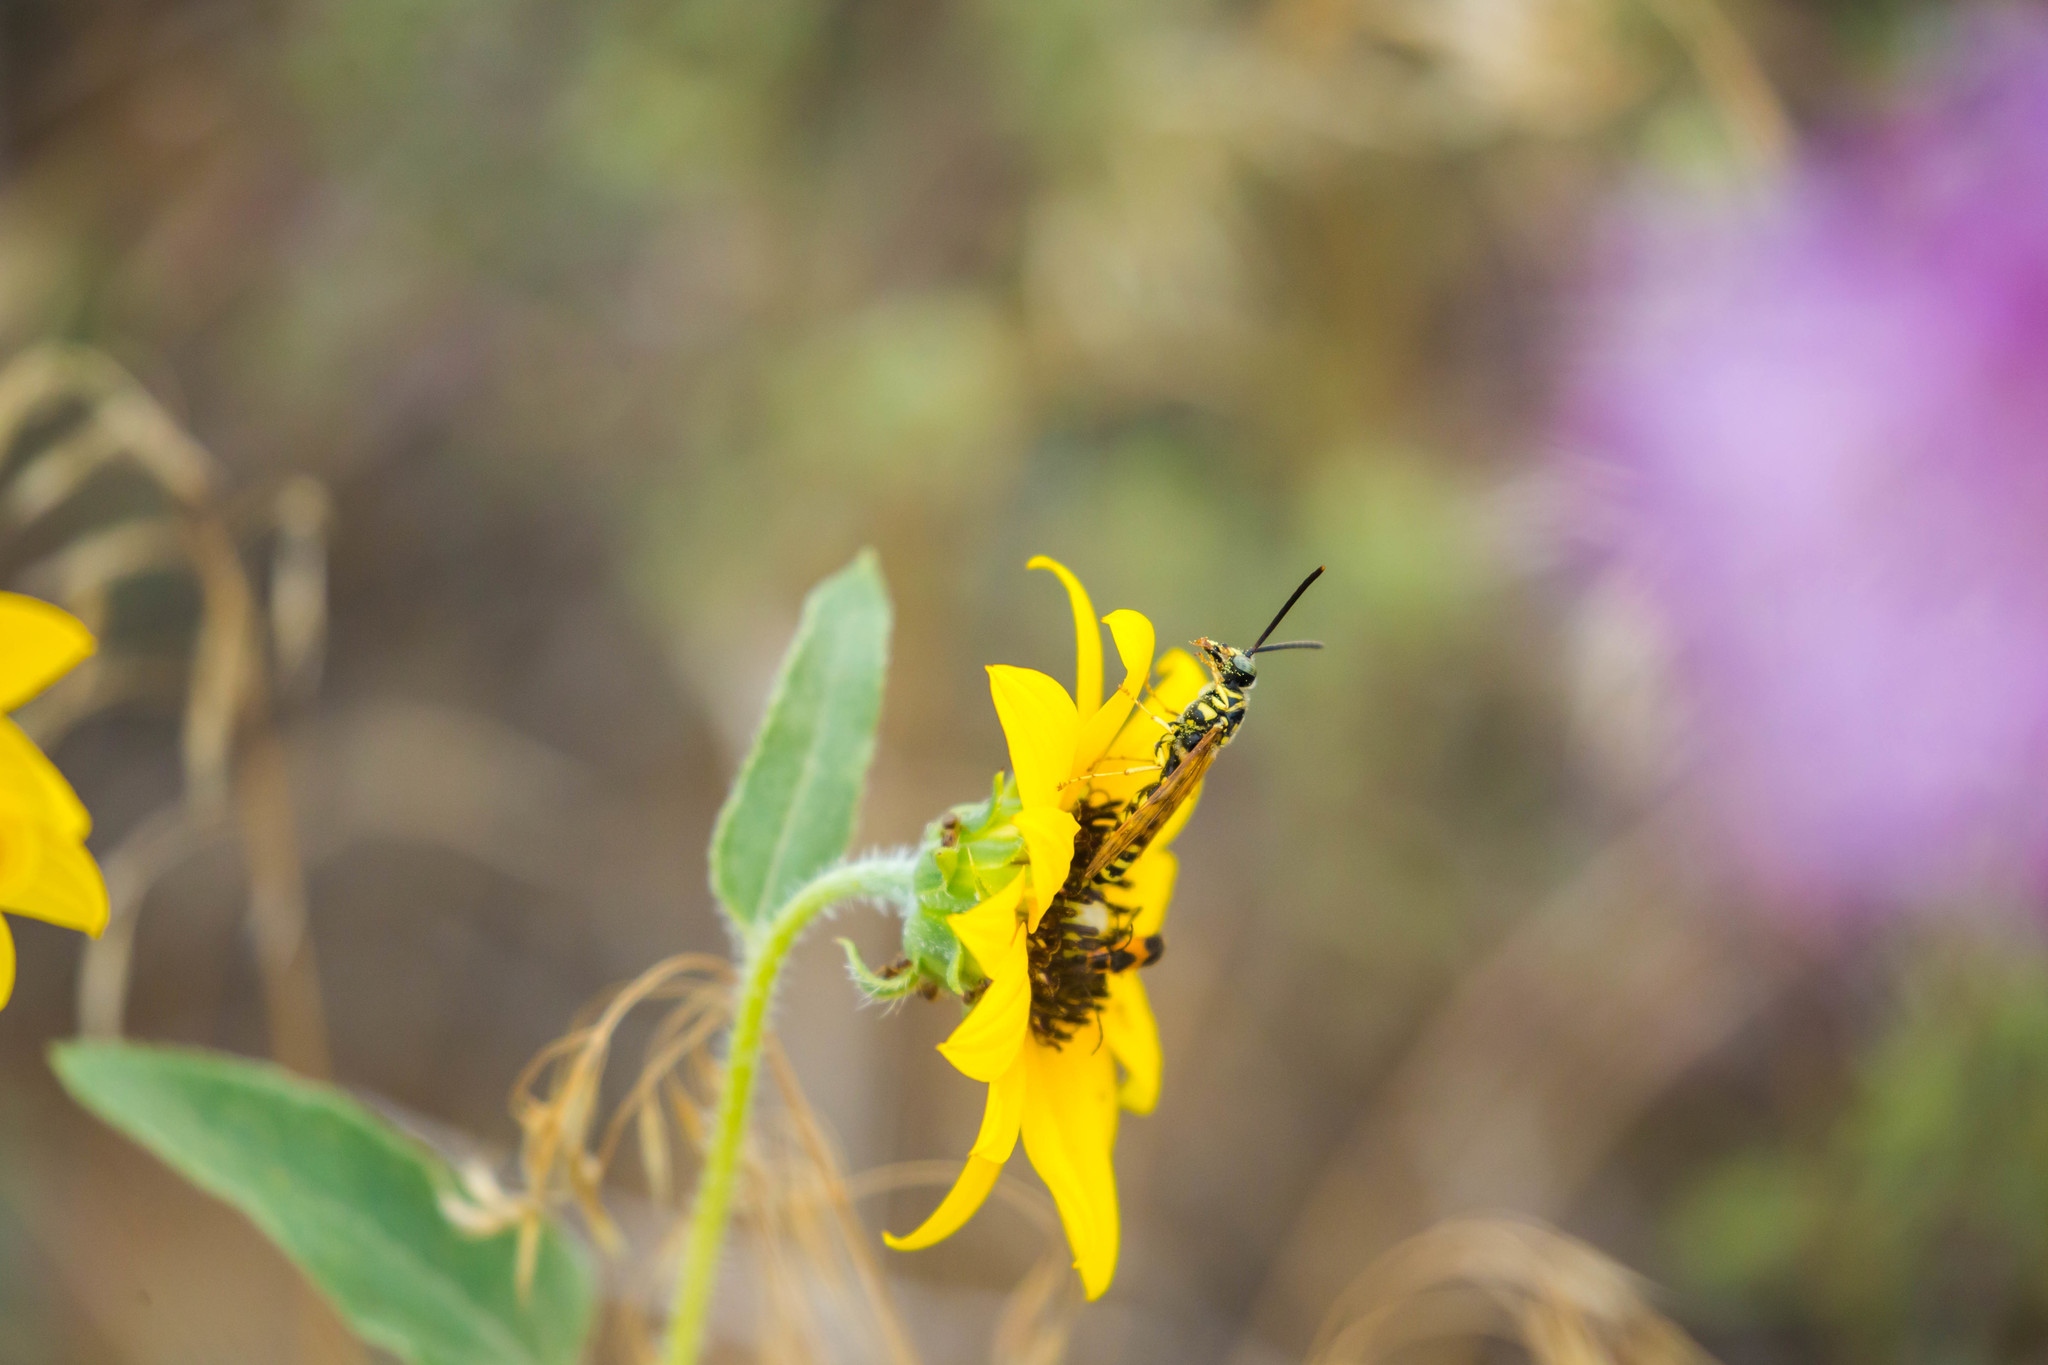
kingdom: Animalia
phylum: Arthropoda
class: Insecta
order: Hymenoptera
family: Tiphiidae
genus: Myzinum
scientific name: Myzinum
